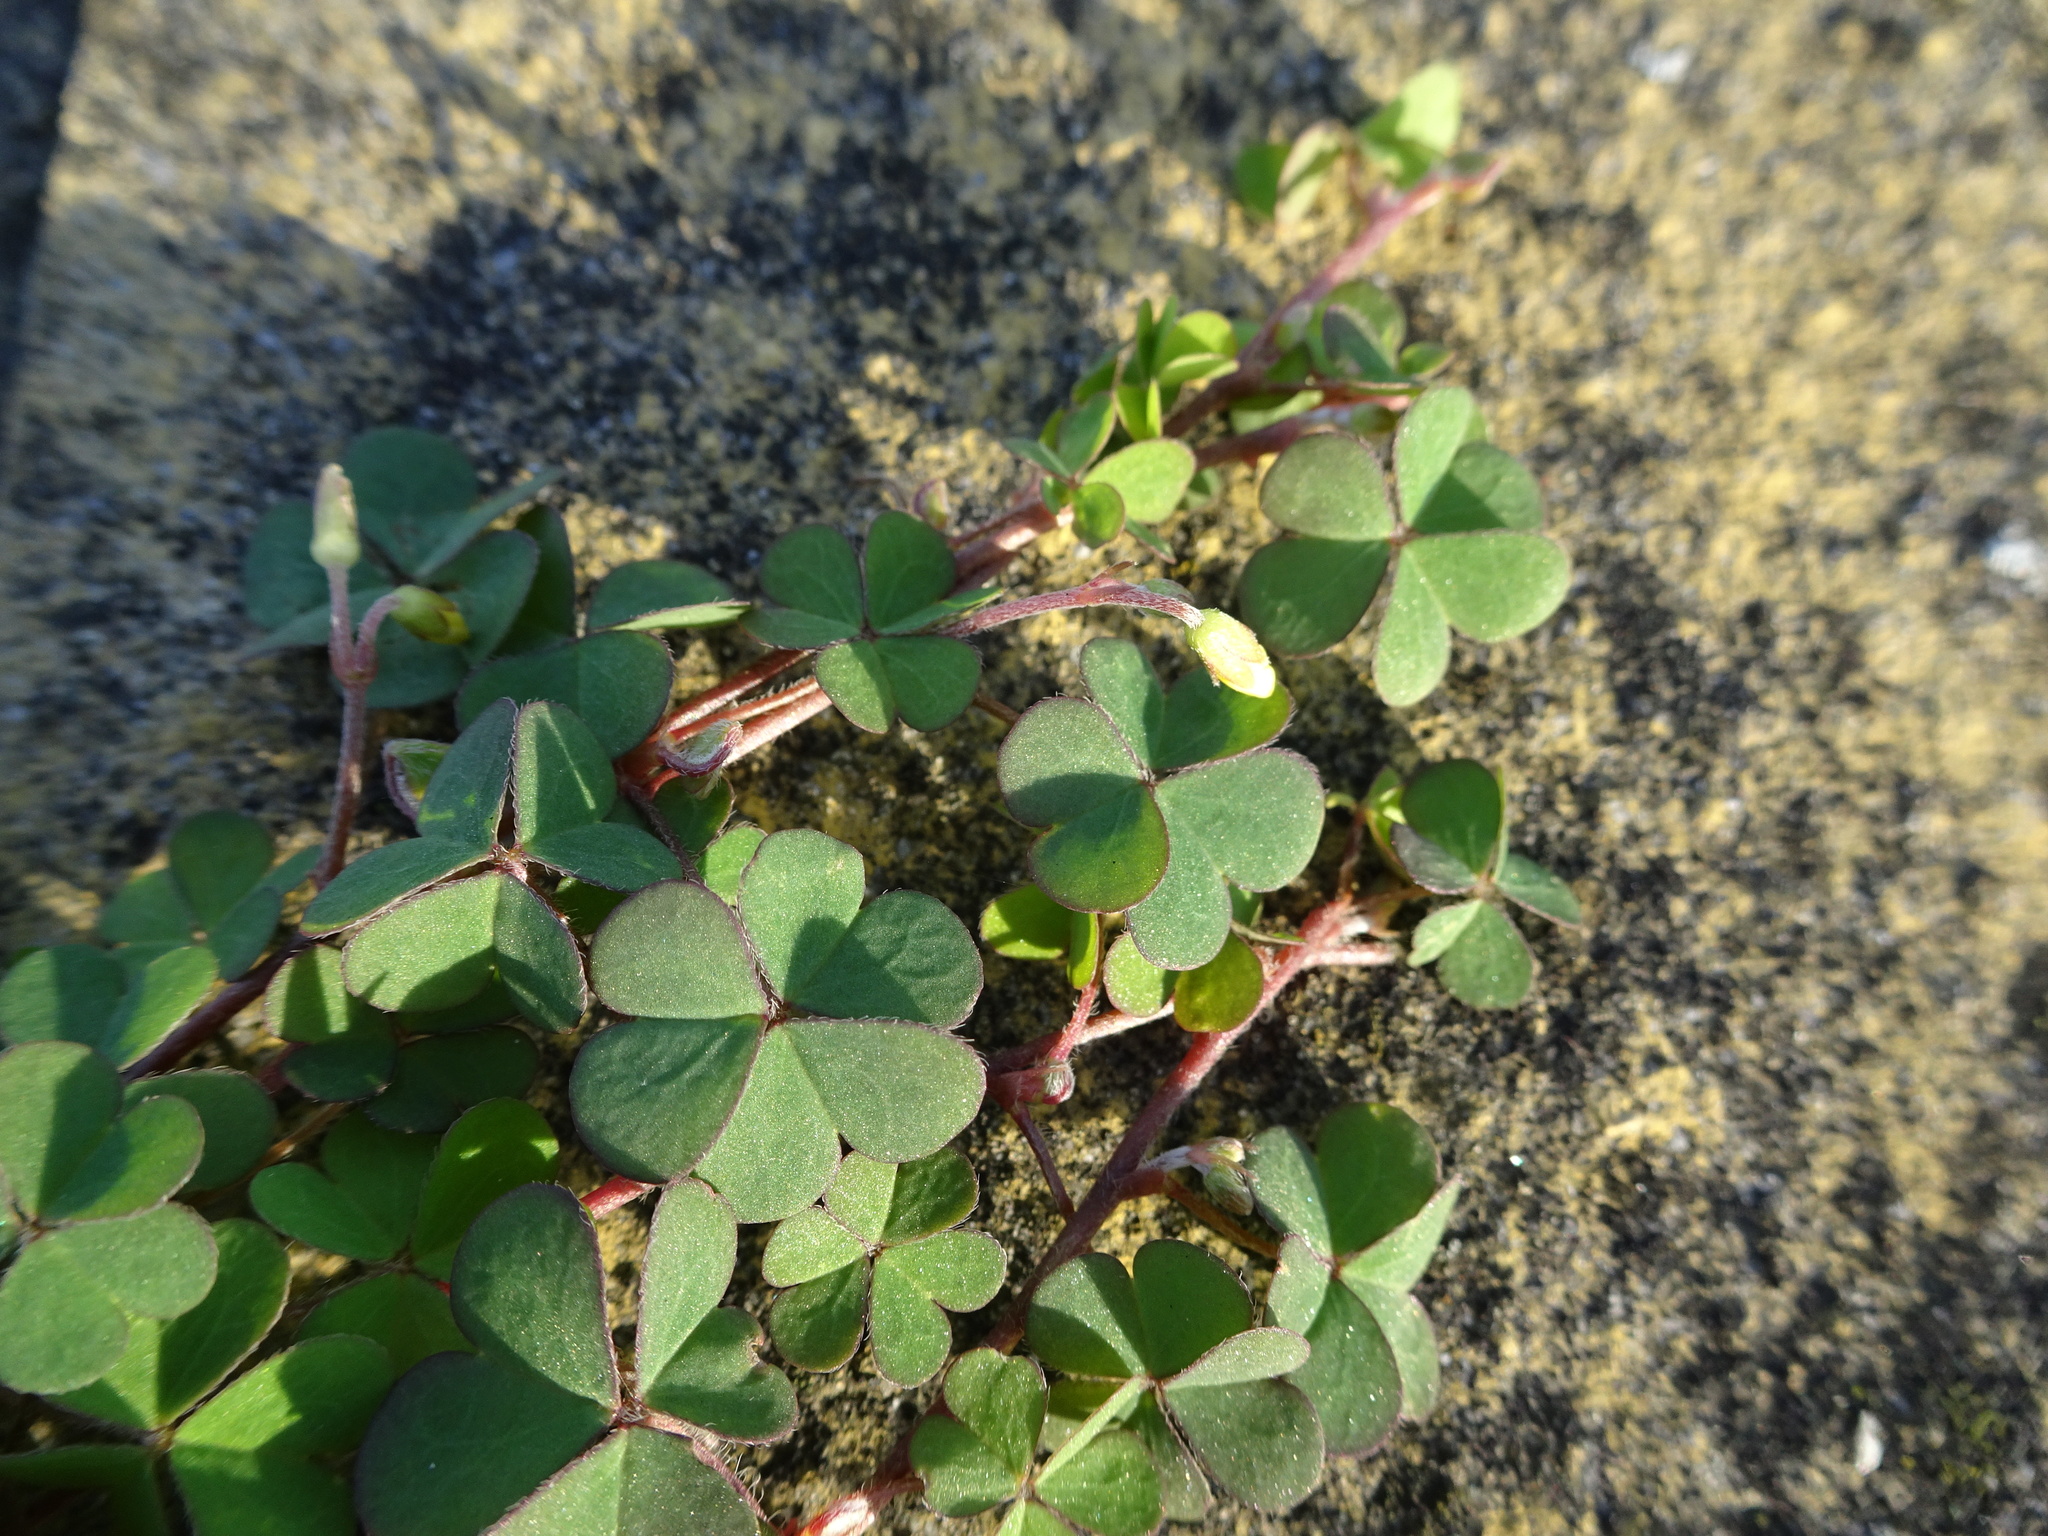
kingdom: Plantae
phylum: Tracheophyta
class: Magnoliopsida
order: Oxalidales
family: Oxalidaceae
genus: Oxalis
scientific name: Oxalis corniculata
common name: Procumbent yellow-sorrel
